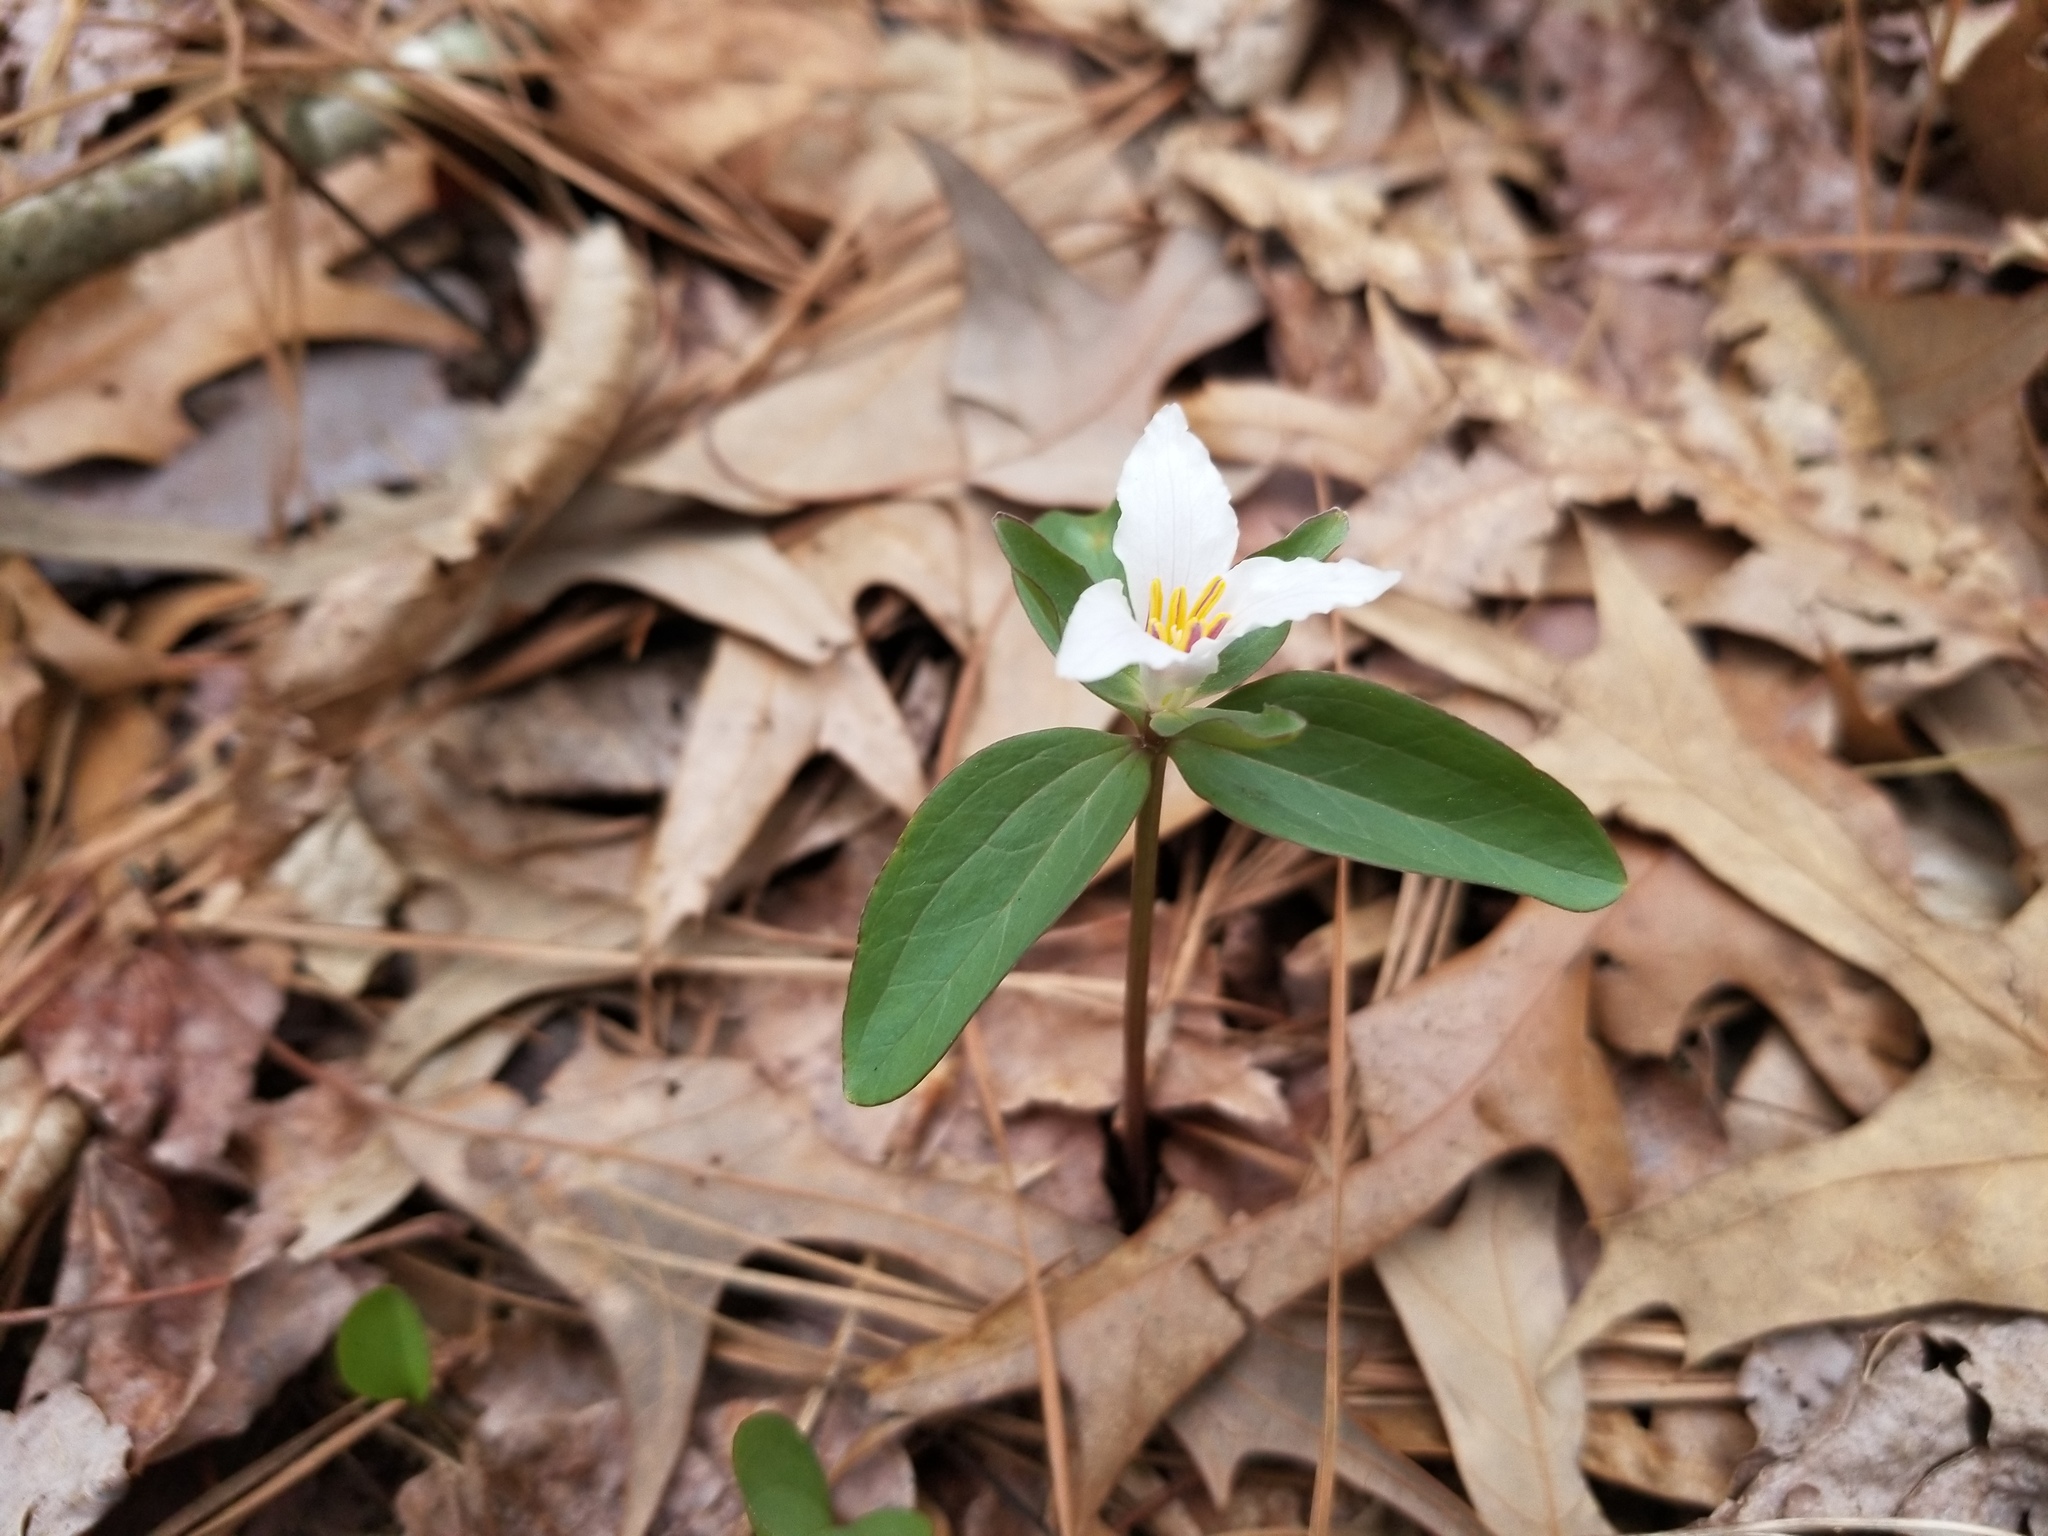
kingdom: Plantae
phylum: Tracheophyta
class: Liliopsida
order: Liliales
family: Melanthiaceae
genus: Trillium
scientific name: Trillium pusillum
